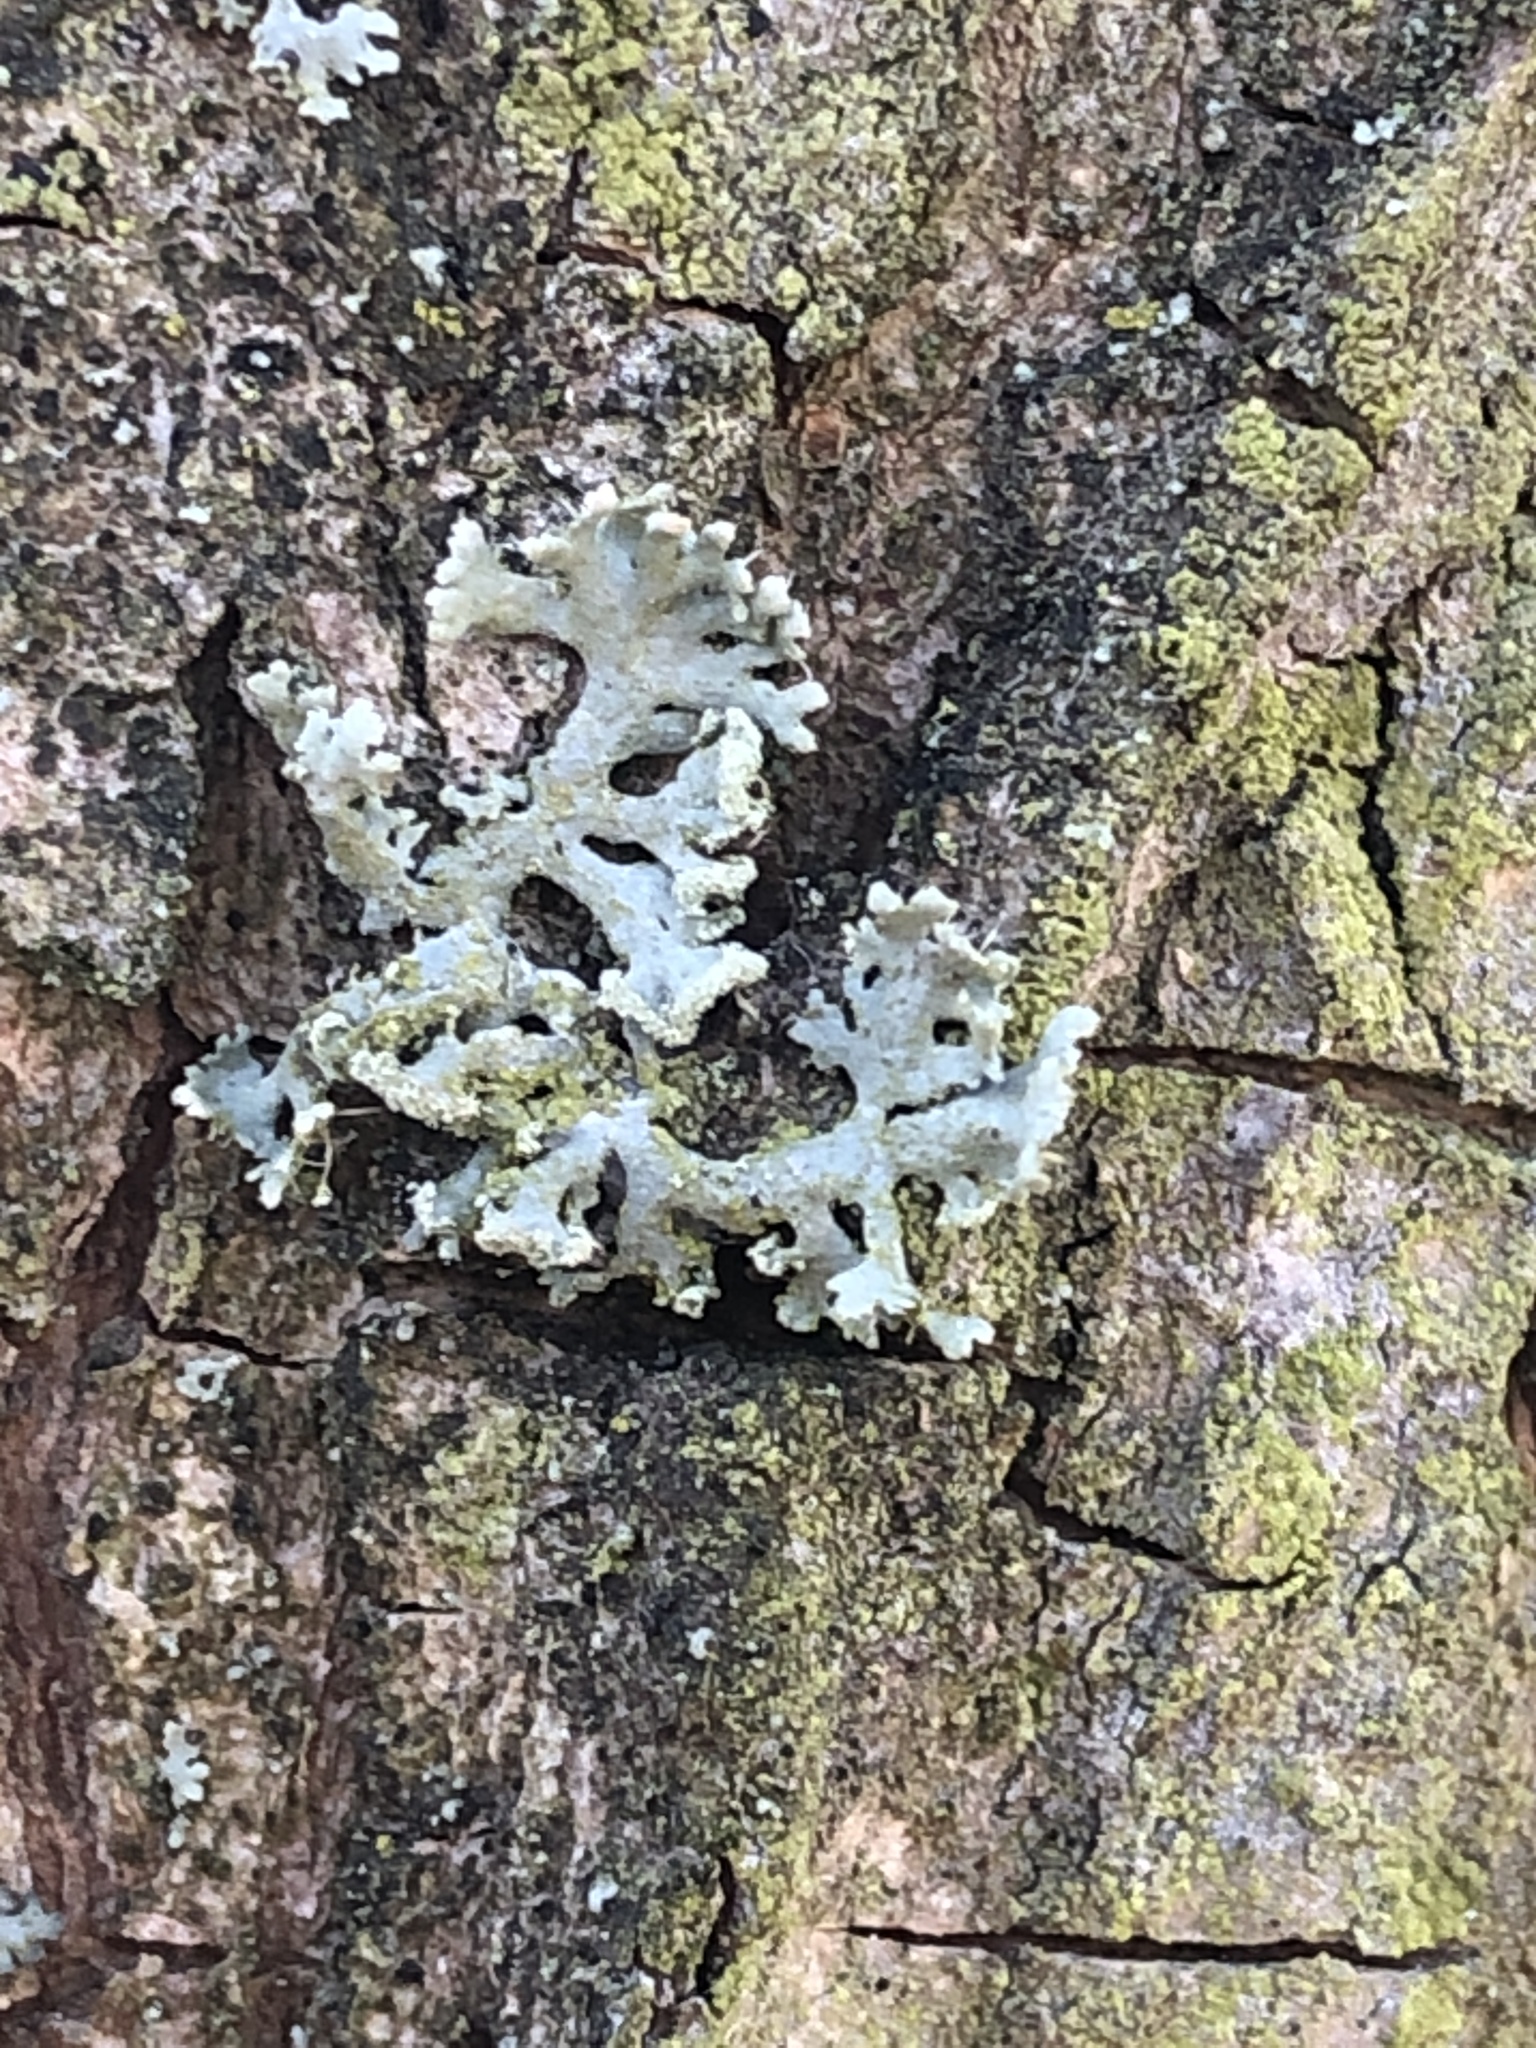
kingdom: Fungi
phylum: Ascomycota
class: Lecanoromycetes
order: Caliciales
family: Physciaceae
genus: Physcia
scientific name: Physcia tenella
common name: Fringed rosette lichen
